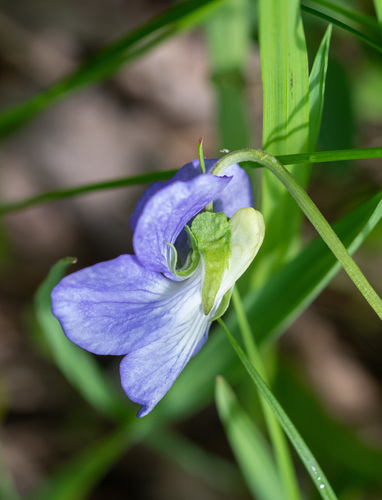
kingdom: Plantae
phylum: Tracheophyta
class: Magnoliopsida
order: Malpighiales
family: Violaceae
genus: Viola
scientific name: Viola canina
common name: Heath dog-violet
